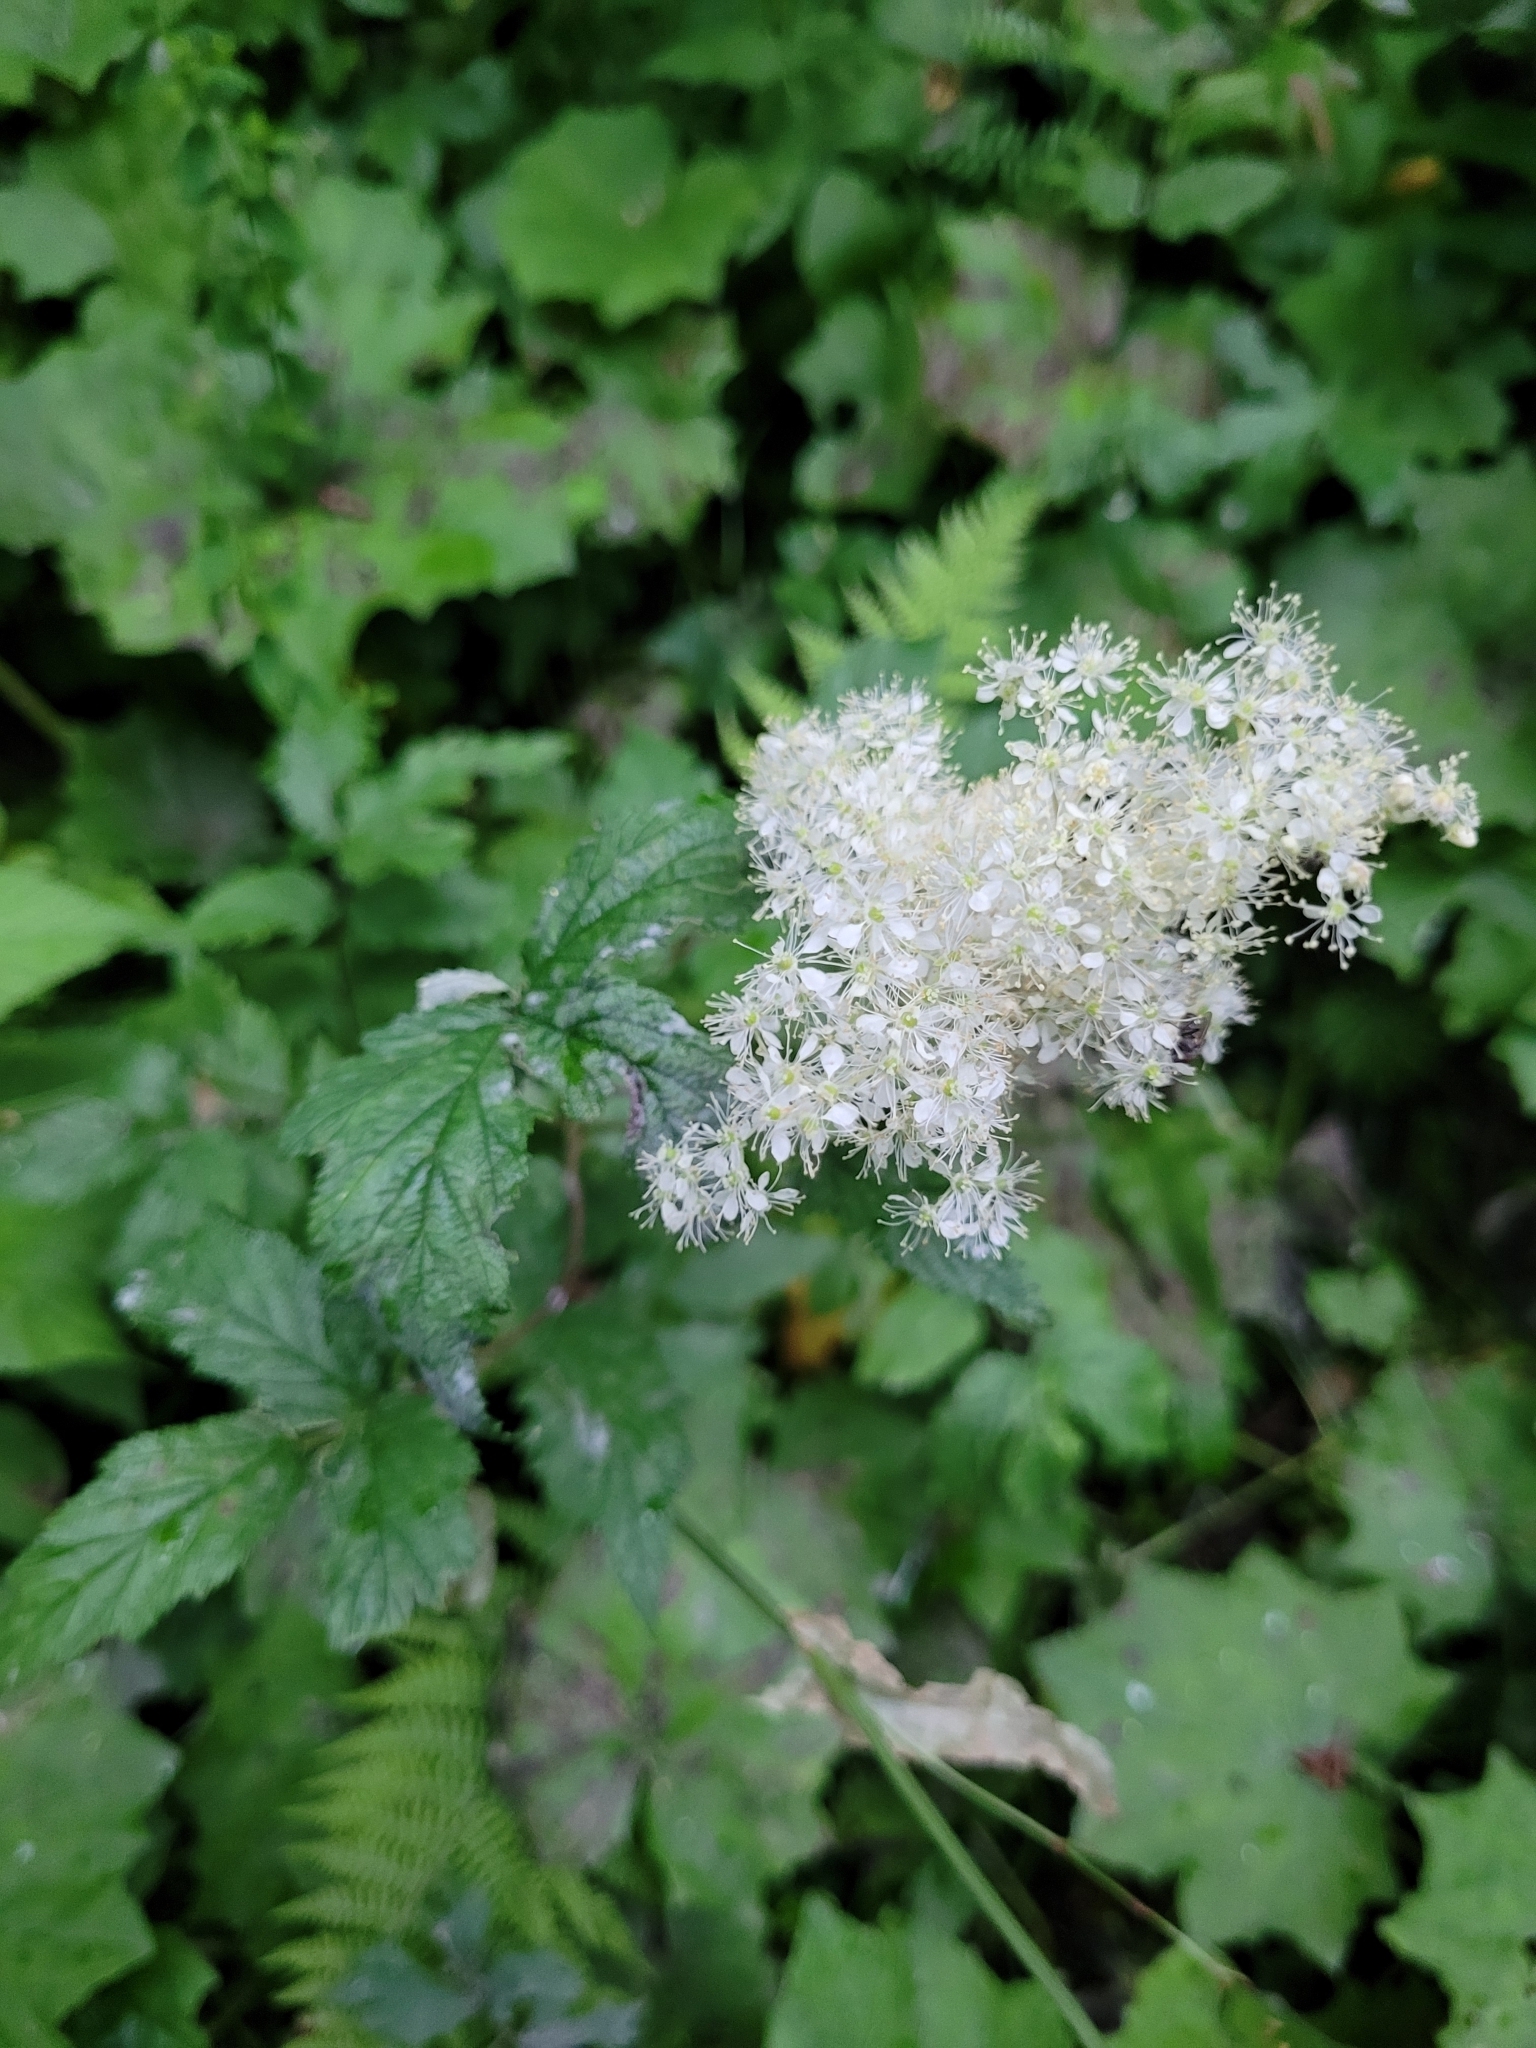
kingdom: Plantae
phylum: Tracheophyta
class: Magnoliopsida
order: Rosales
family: Rosaceae
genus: Filipendula
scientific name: Filipendula ulmaria
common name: Meadowsweet
